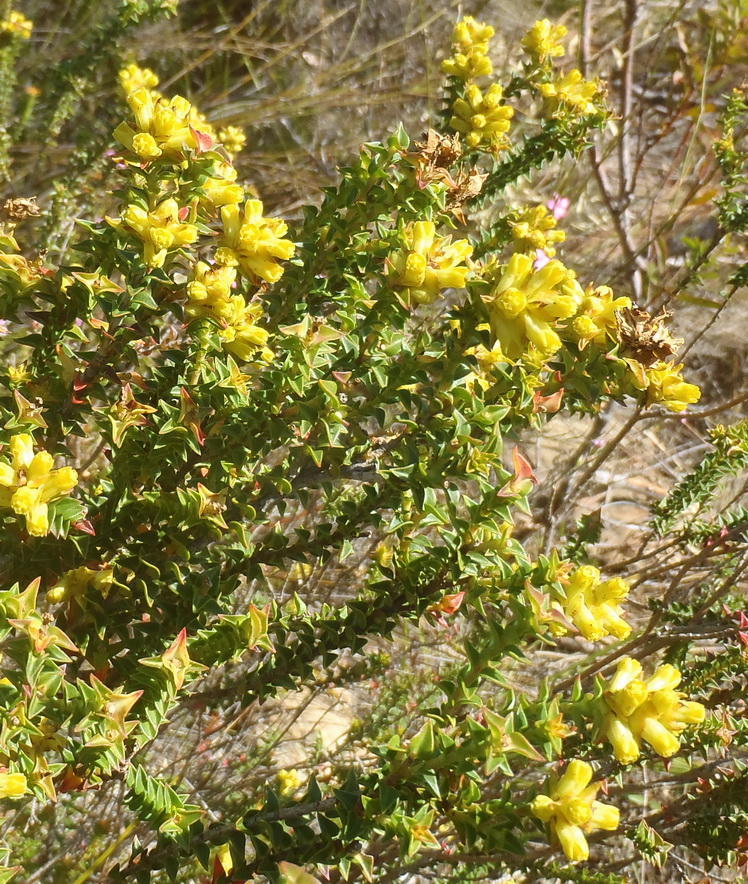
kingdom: Plantae
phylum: Tracheophyta
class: Magnoliopsida
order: Myrtales
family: Penaeaceae
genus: Penaea
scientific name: Penaea mucronata
